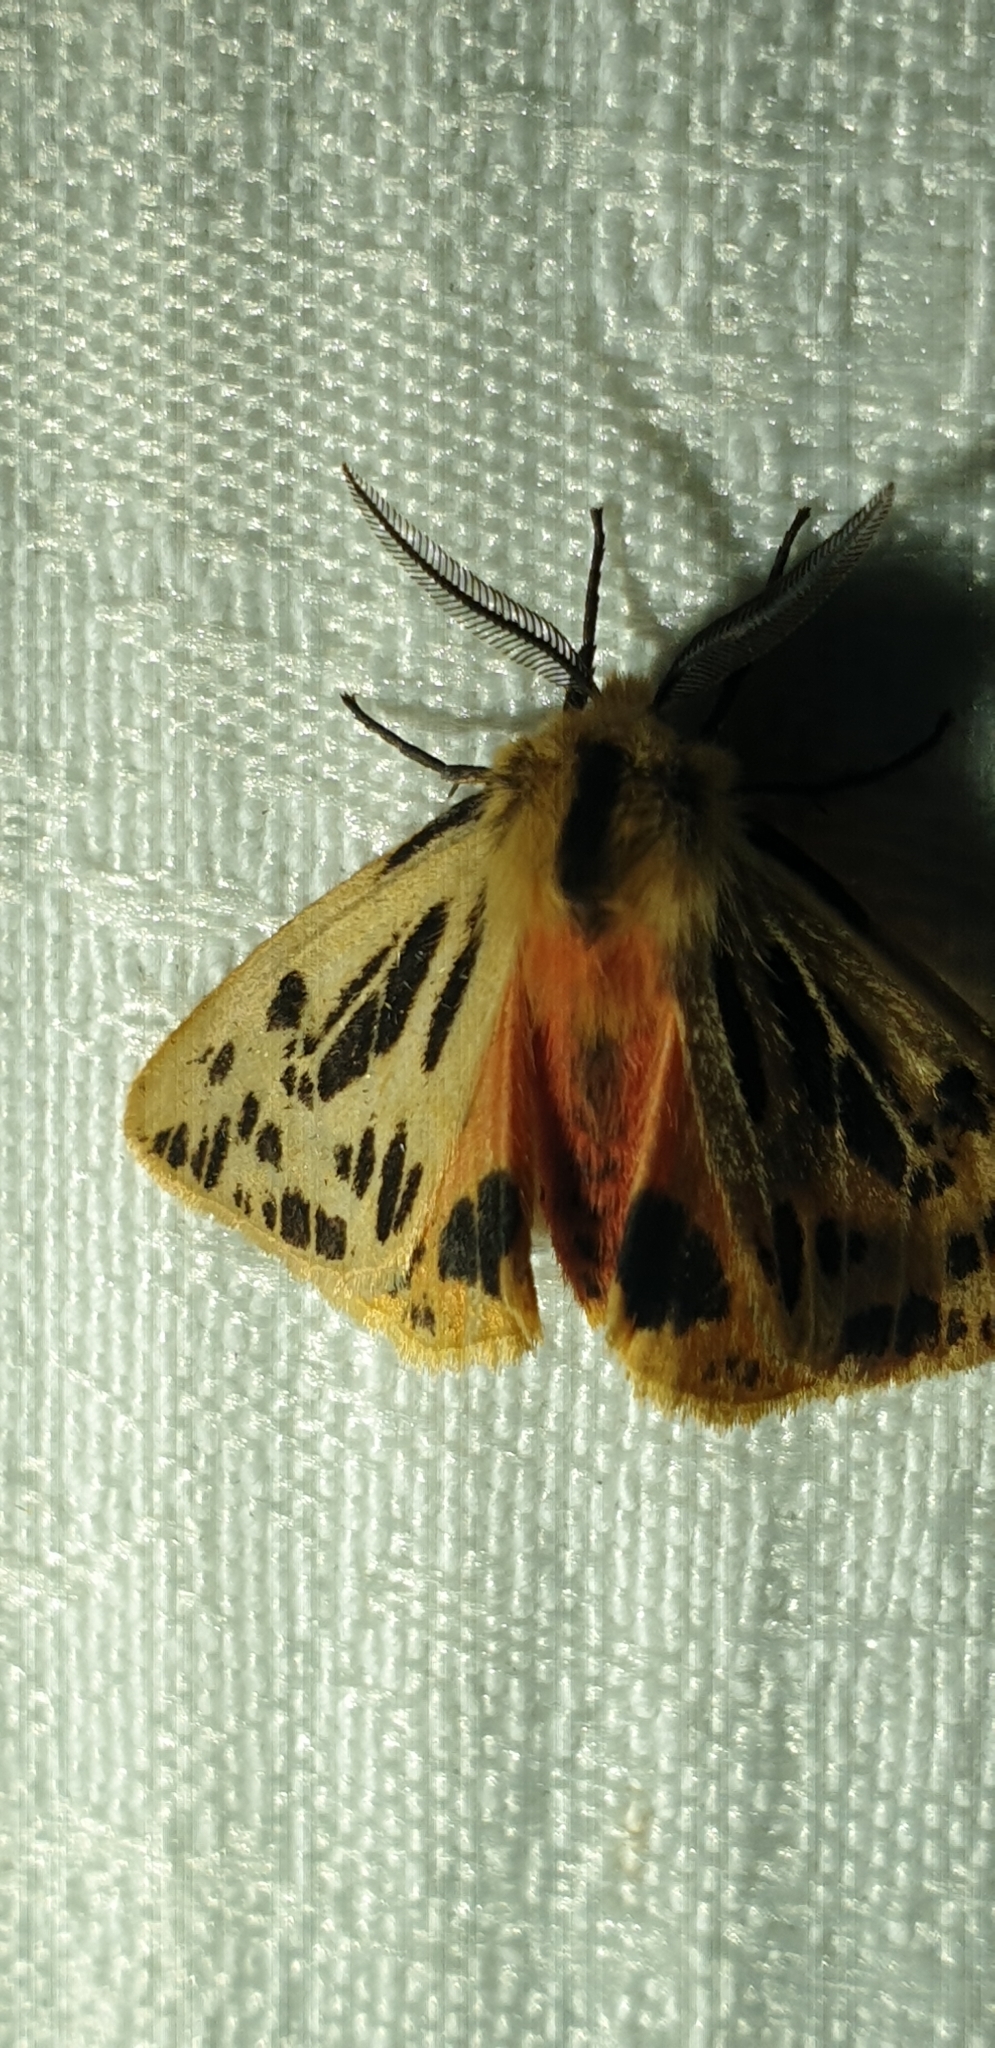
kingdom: Animalia
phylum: Arthropoda
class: Insecta
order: Lepidoptera
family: Erebidae
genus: Ardices
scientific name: Ardices curvata
